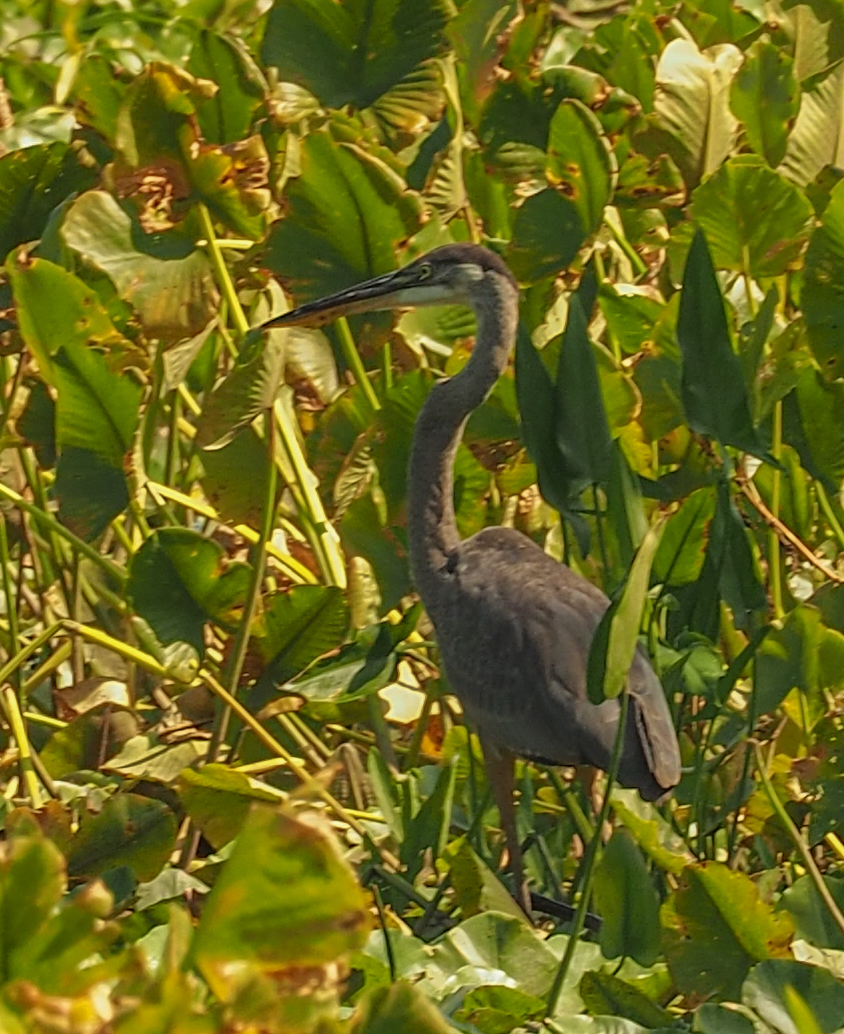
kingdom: Animalia
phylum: Chordata
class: Aves
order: Pelecaniformes
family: Ardeidae
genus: Ardea
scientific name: Ardea herodias
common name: Great blue heron
